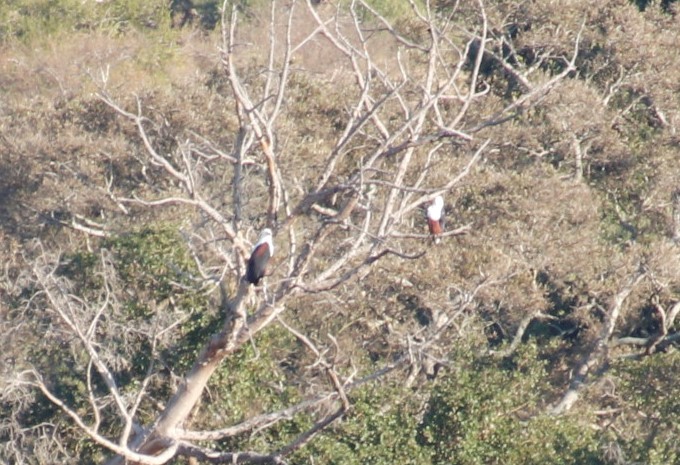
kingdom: Animalia
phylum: Chordata
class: Aves
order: Accipitriformes
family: Accipitridae
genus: Haliaeetus
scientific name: Haliaeetus vocifer
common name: African fish eagle
